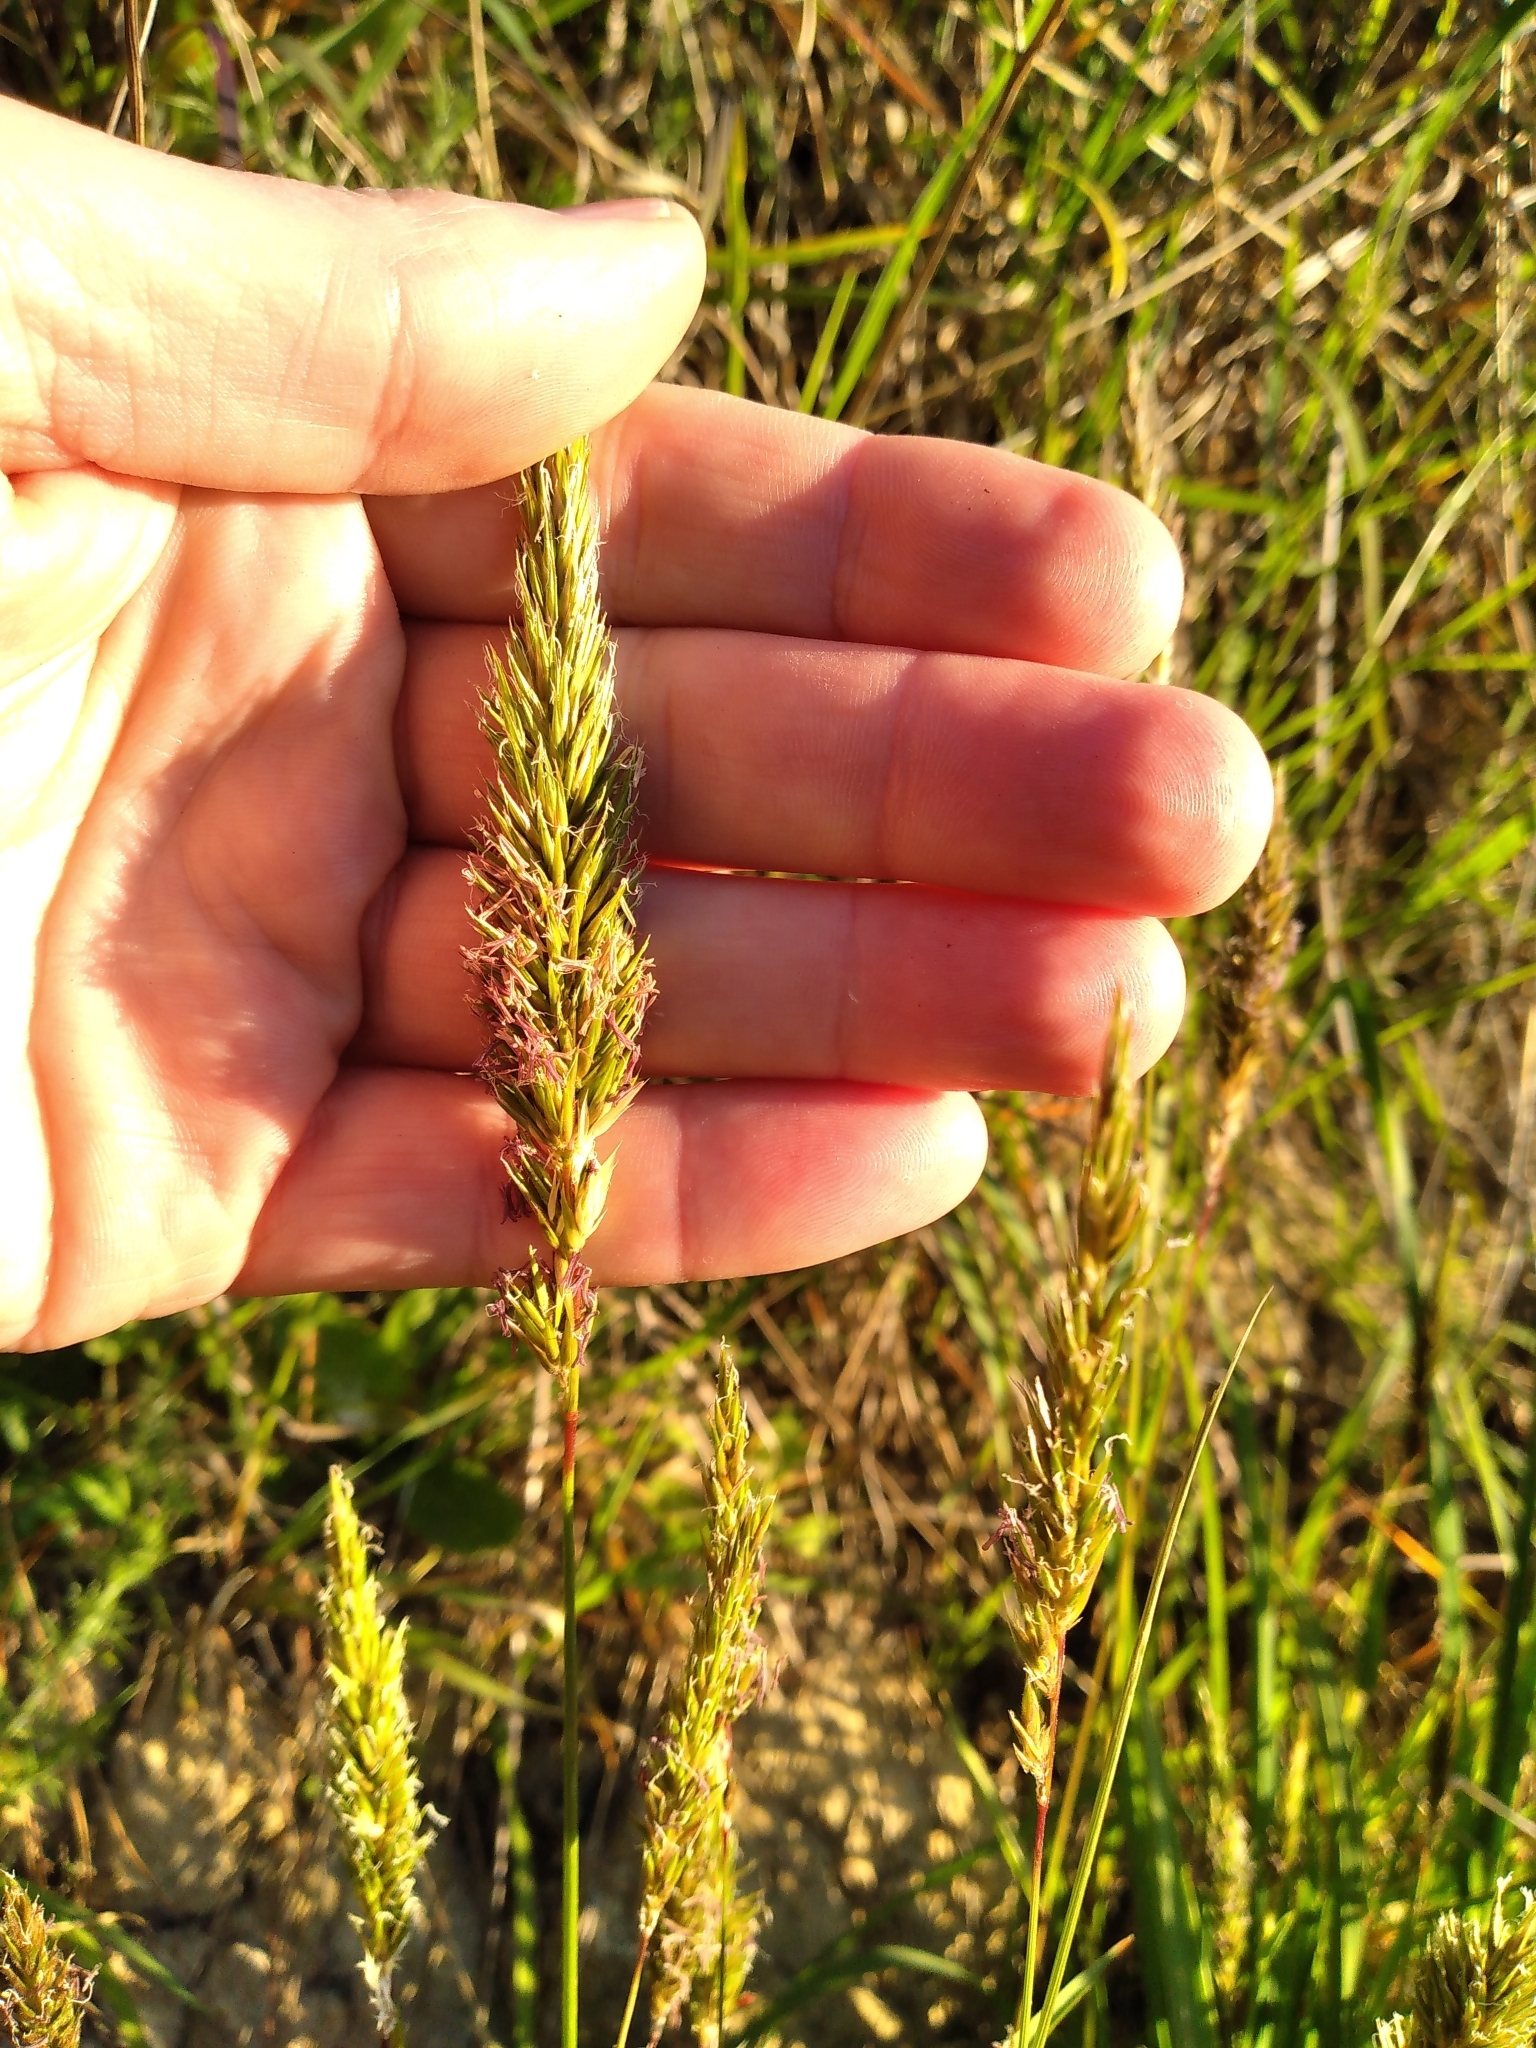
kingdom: Plantae
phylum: Tracheophyta
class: Liliopsida
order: Poales
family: Poaceae
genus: Anthoxanthum
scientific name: Anthoxanthum odoratum
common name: Sweet vernalgrass
